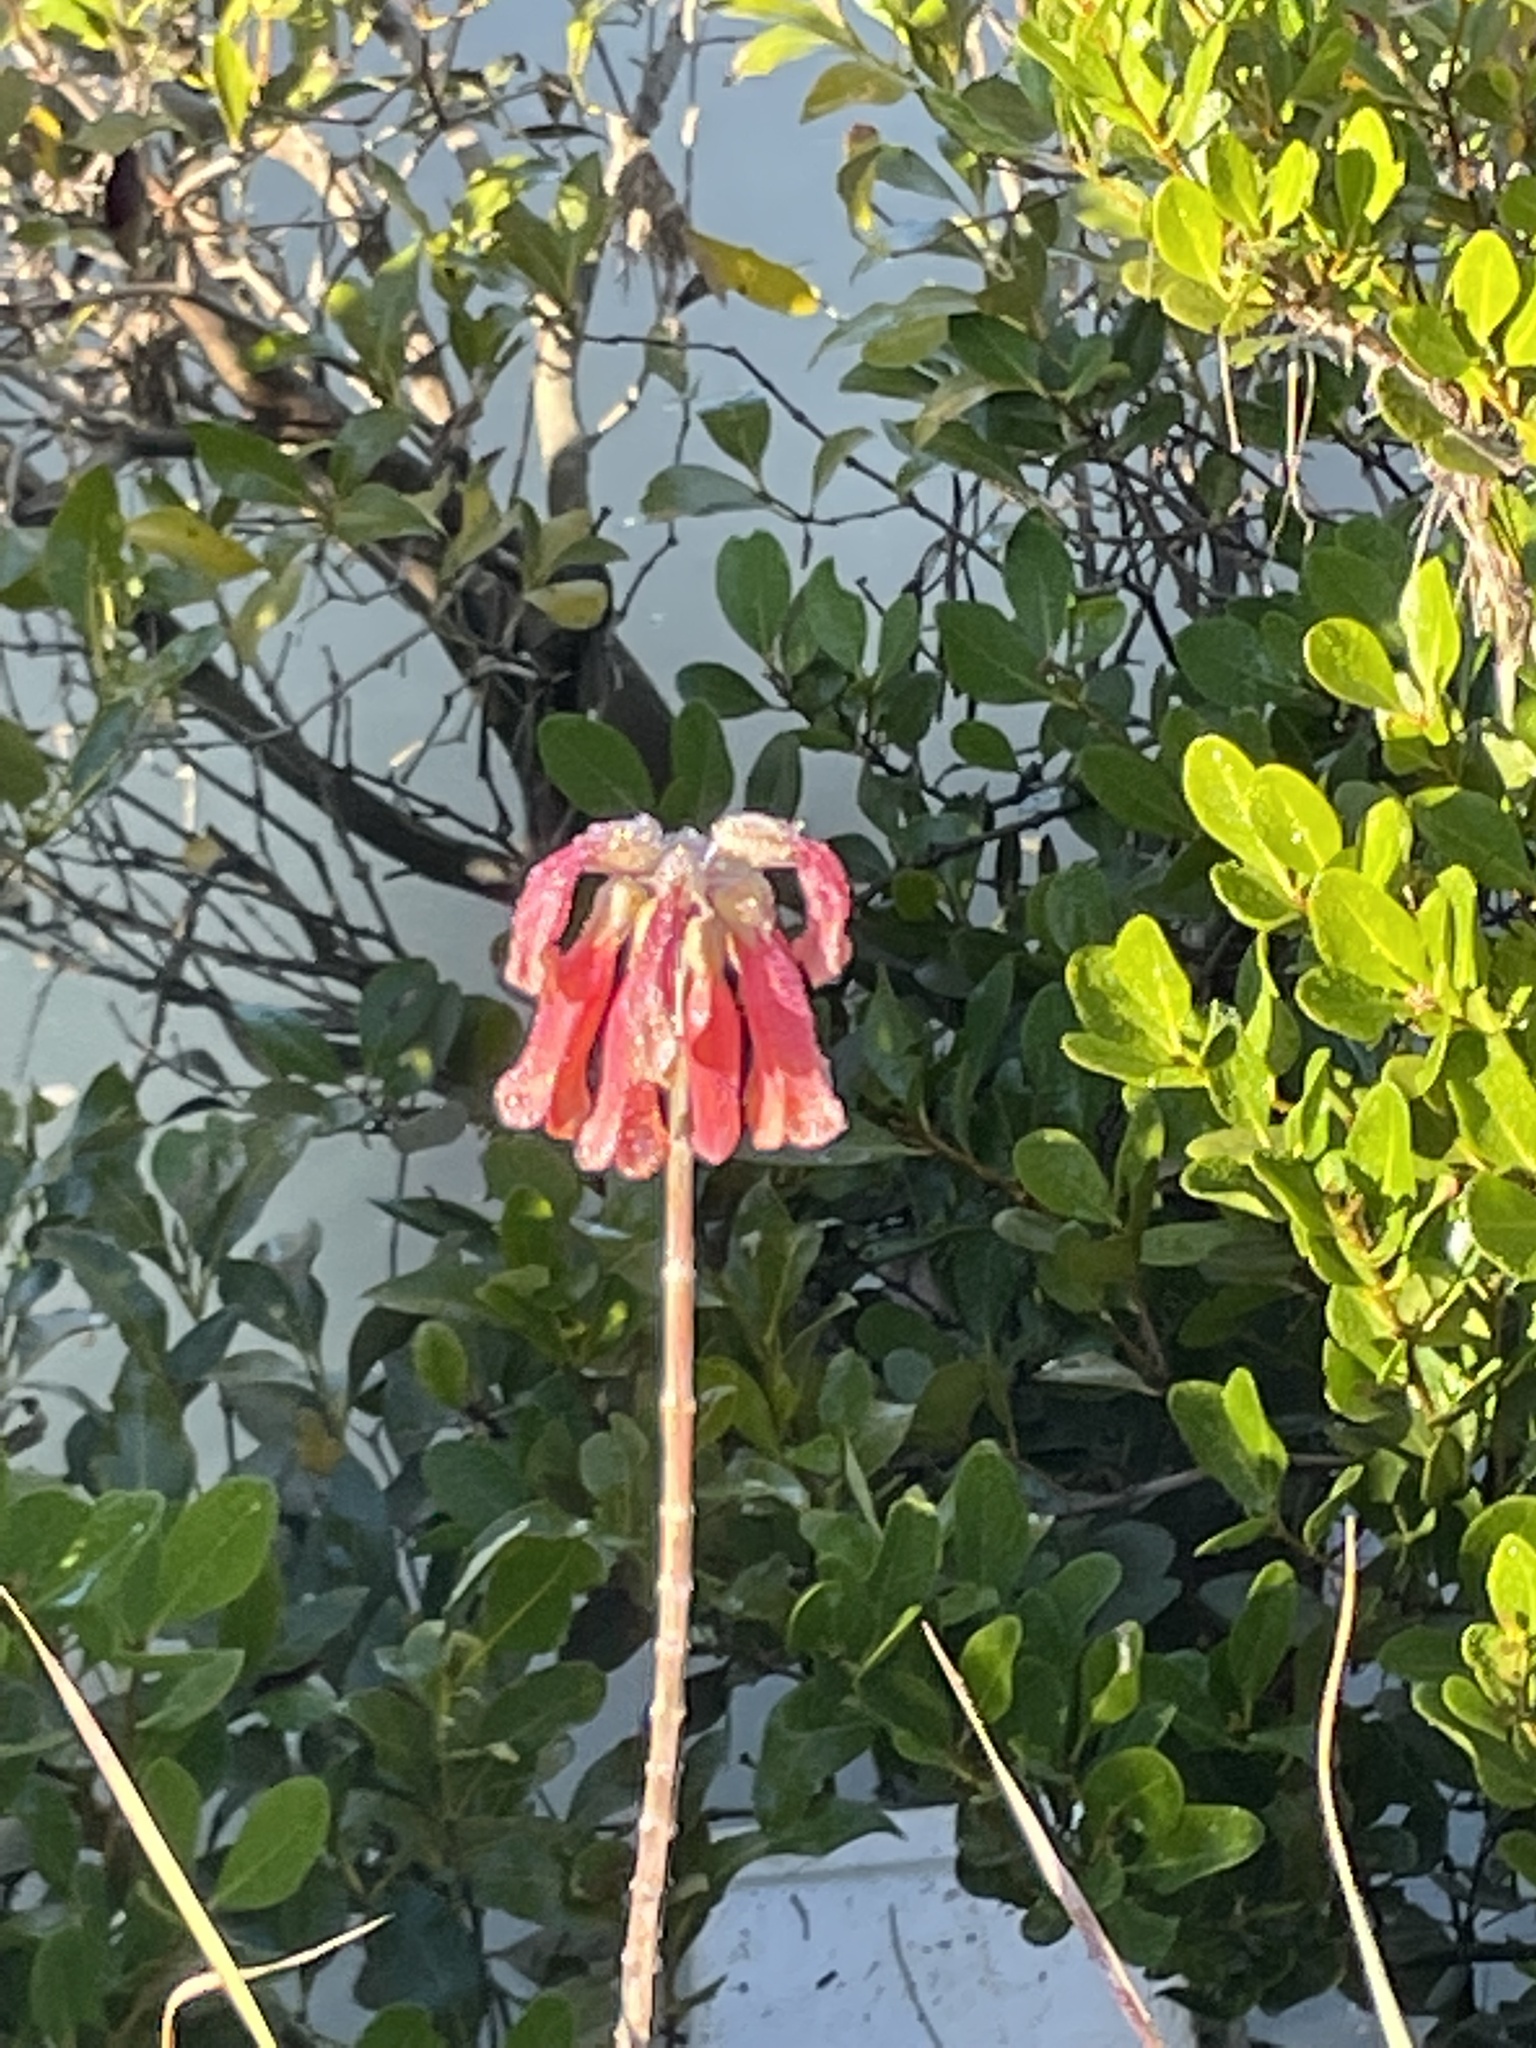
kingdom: Plantae
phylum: Tracheophyta
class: Magnoliopsida
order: Saxifragales
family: Crassulaceae
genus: Kalanchoe
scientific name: Kalanchoe delagoensis
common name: Chandelier plant
